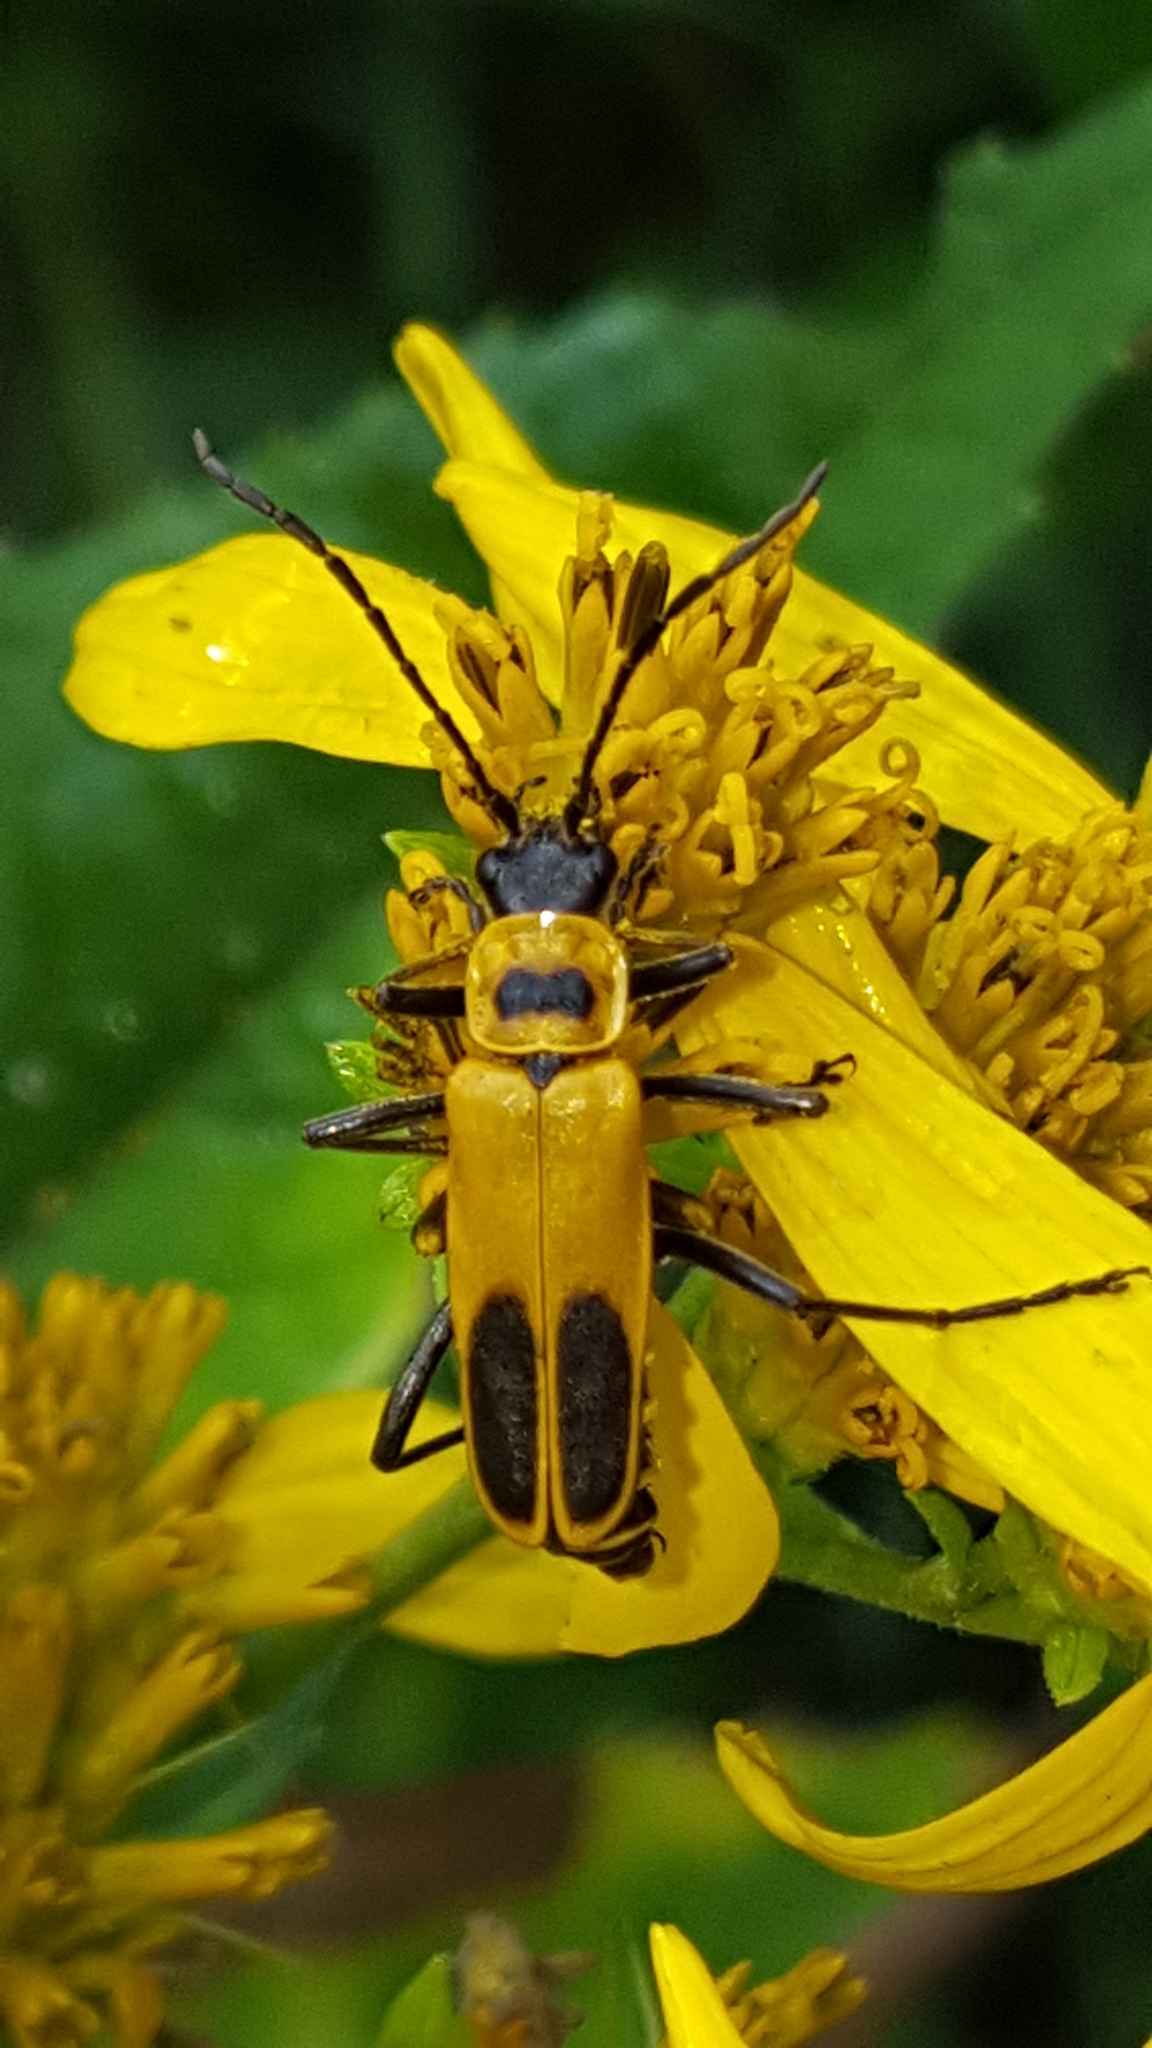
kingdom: Animalia
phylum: Arthropoda
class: Insecta
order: Coleoptera
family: Cantharidae
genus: Chauliognathus
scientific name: Chauliognathus pensylvanicus
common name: Goldenrod soldier beetle
